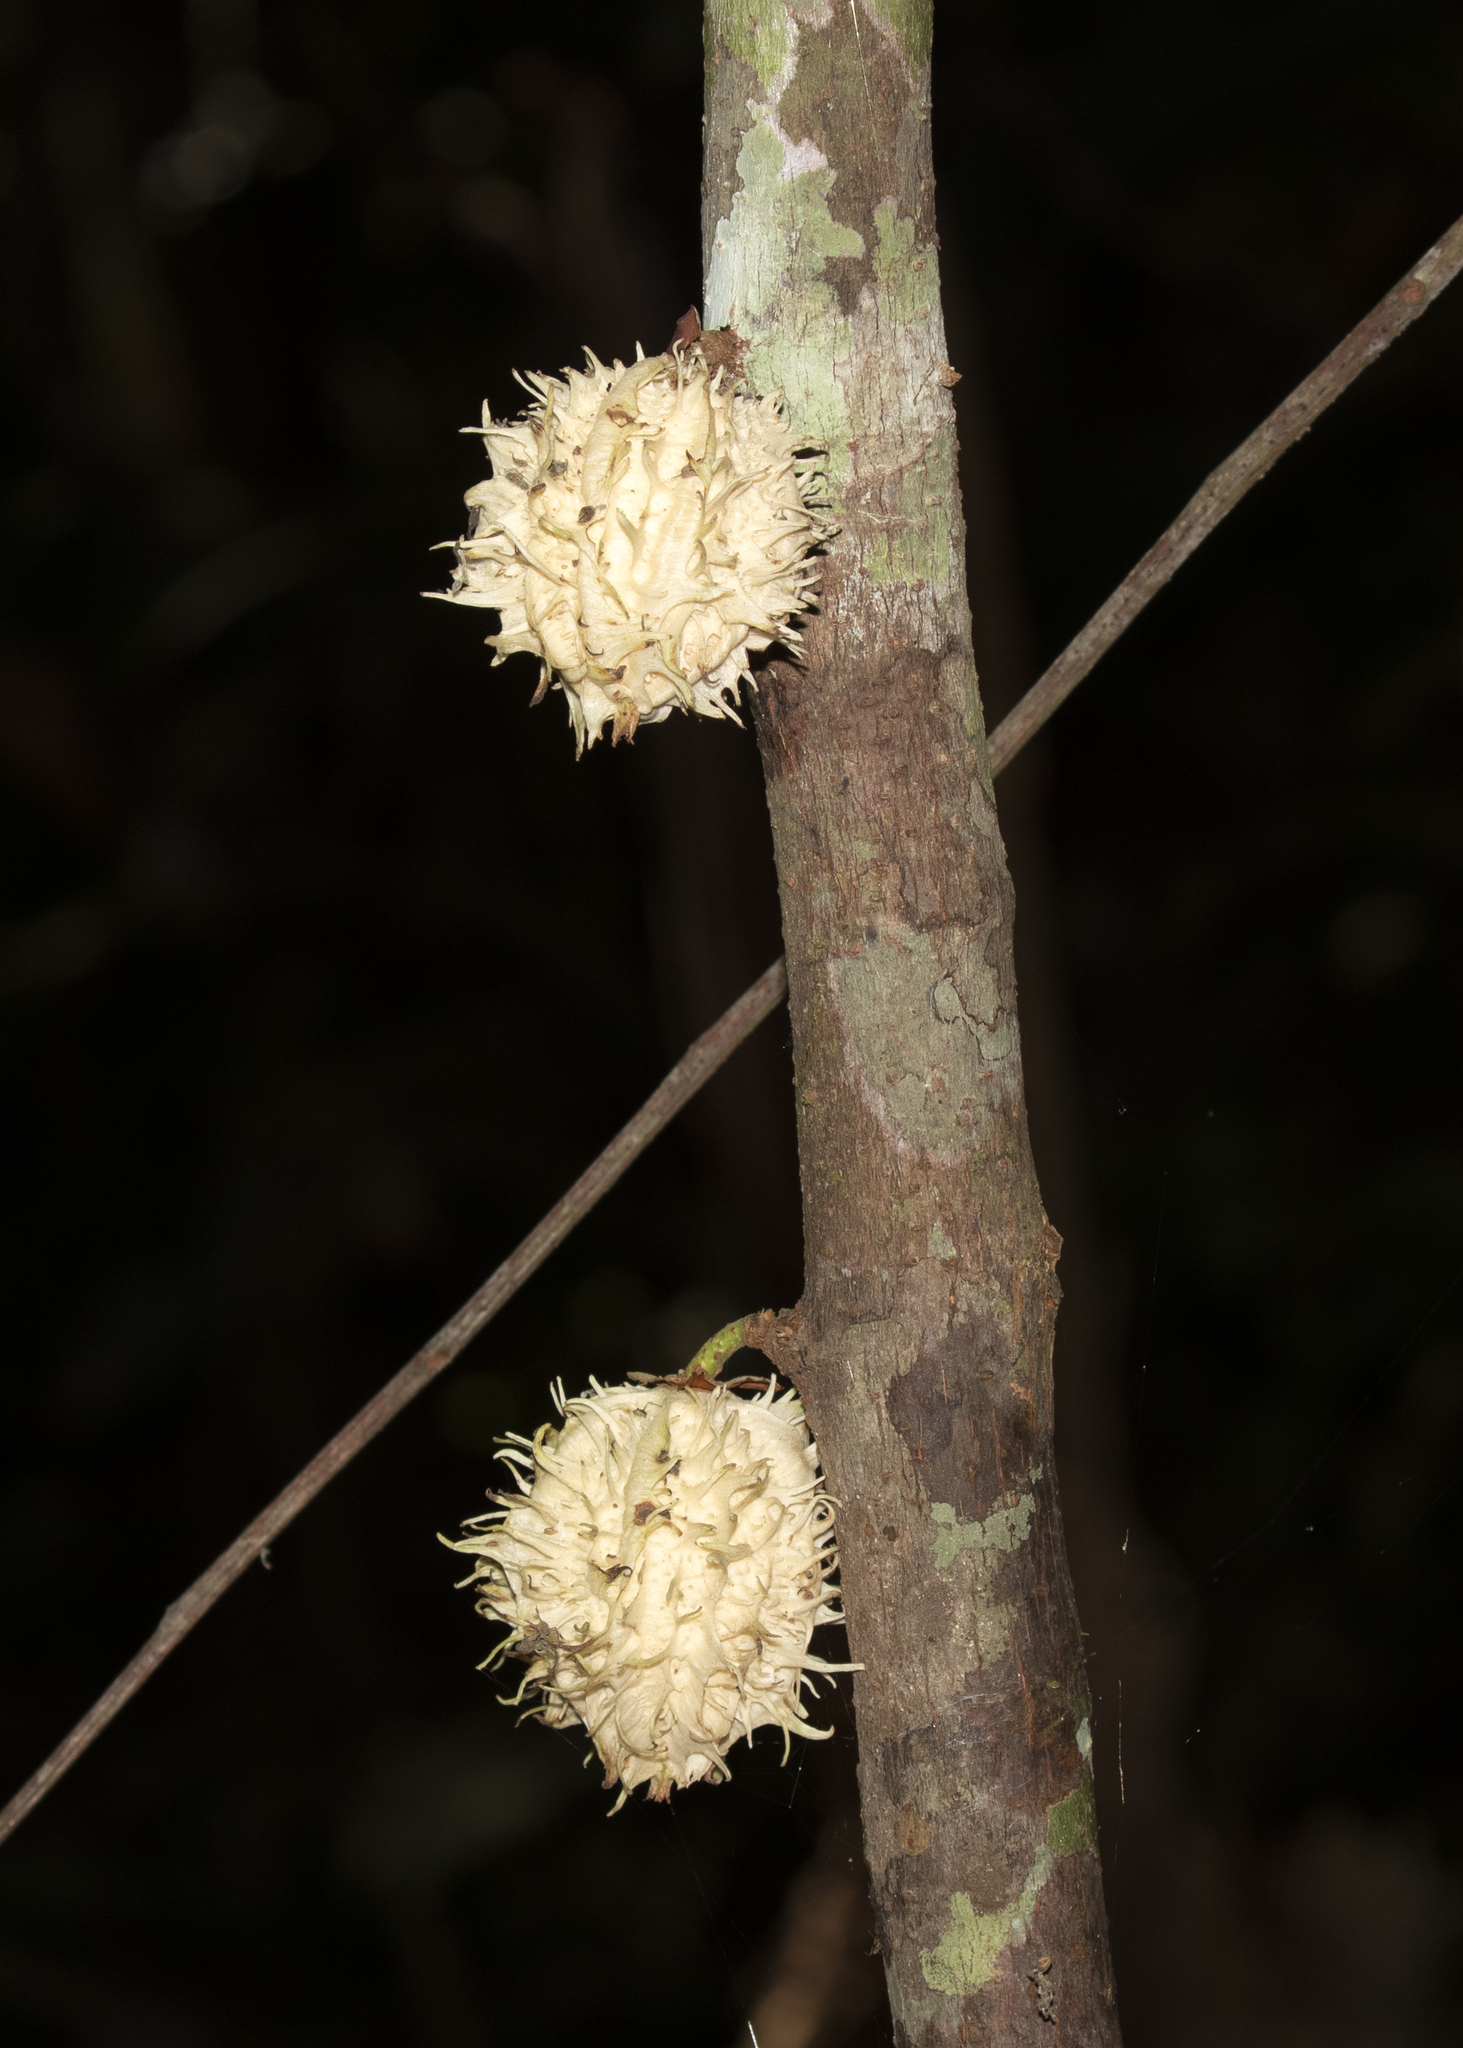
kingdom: Plantae
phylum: Tracheophyta
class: Magnoliopsida
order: Malpighiales
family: Achariaceae
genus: Carpotroche
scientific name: Carpotroche longifolia
